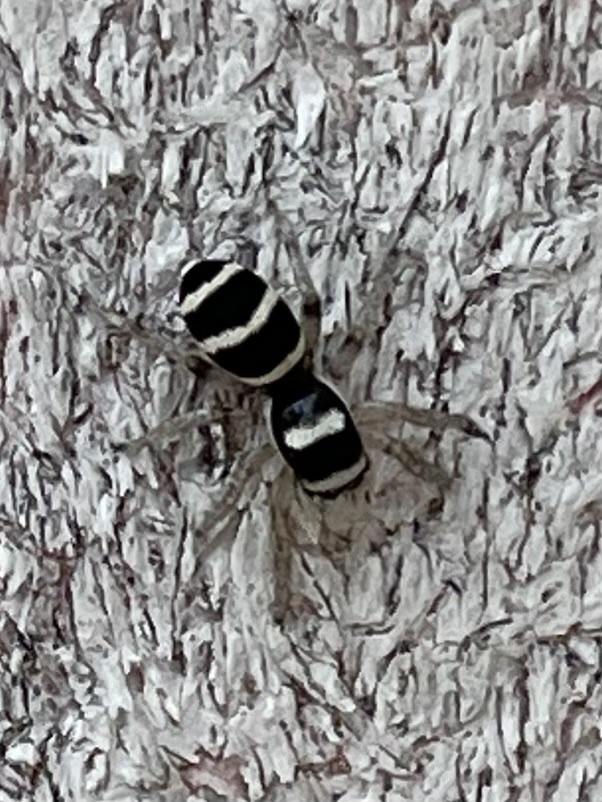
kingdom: Animalia
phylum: Arthropoda
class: Arachnida
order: Araneae
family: Salticidae
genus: Salticus
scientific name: Salticus austinensis
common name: Jumping spiders
